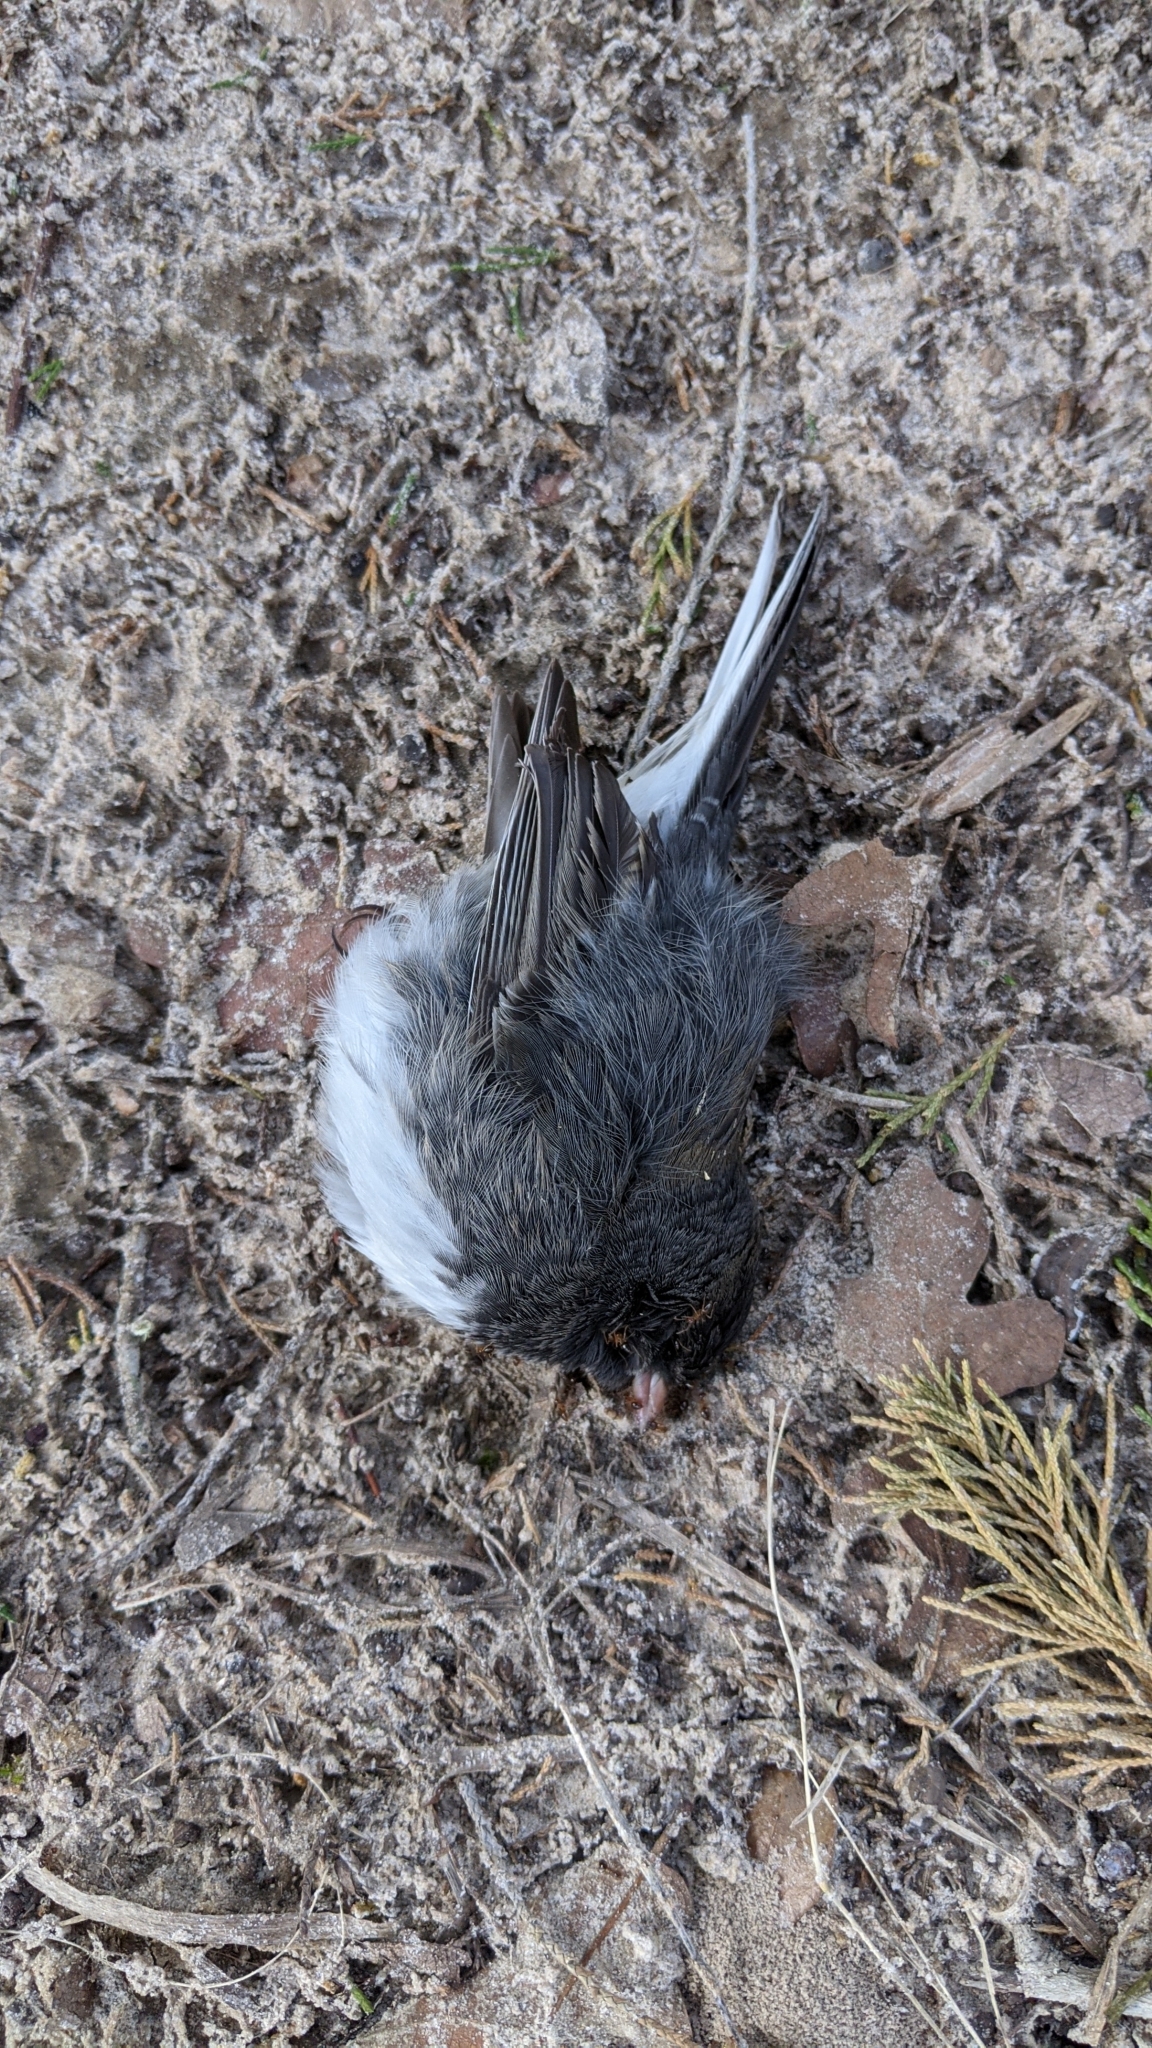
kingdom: Animalia
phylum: Chordata
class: Aves
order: Passeriformes
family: Passerellidae
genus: Junco
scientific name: Junco hyemalis
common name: Dark-eyed junco
